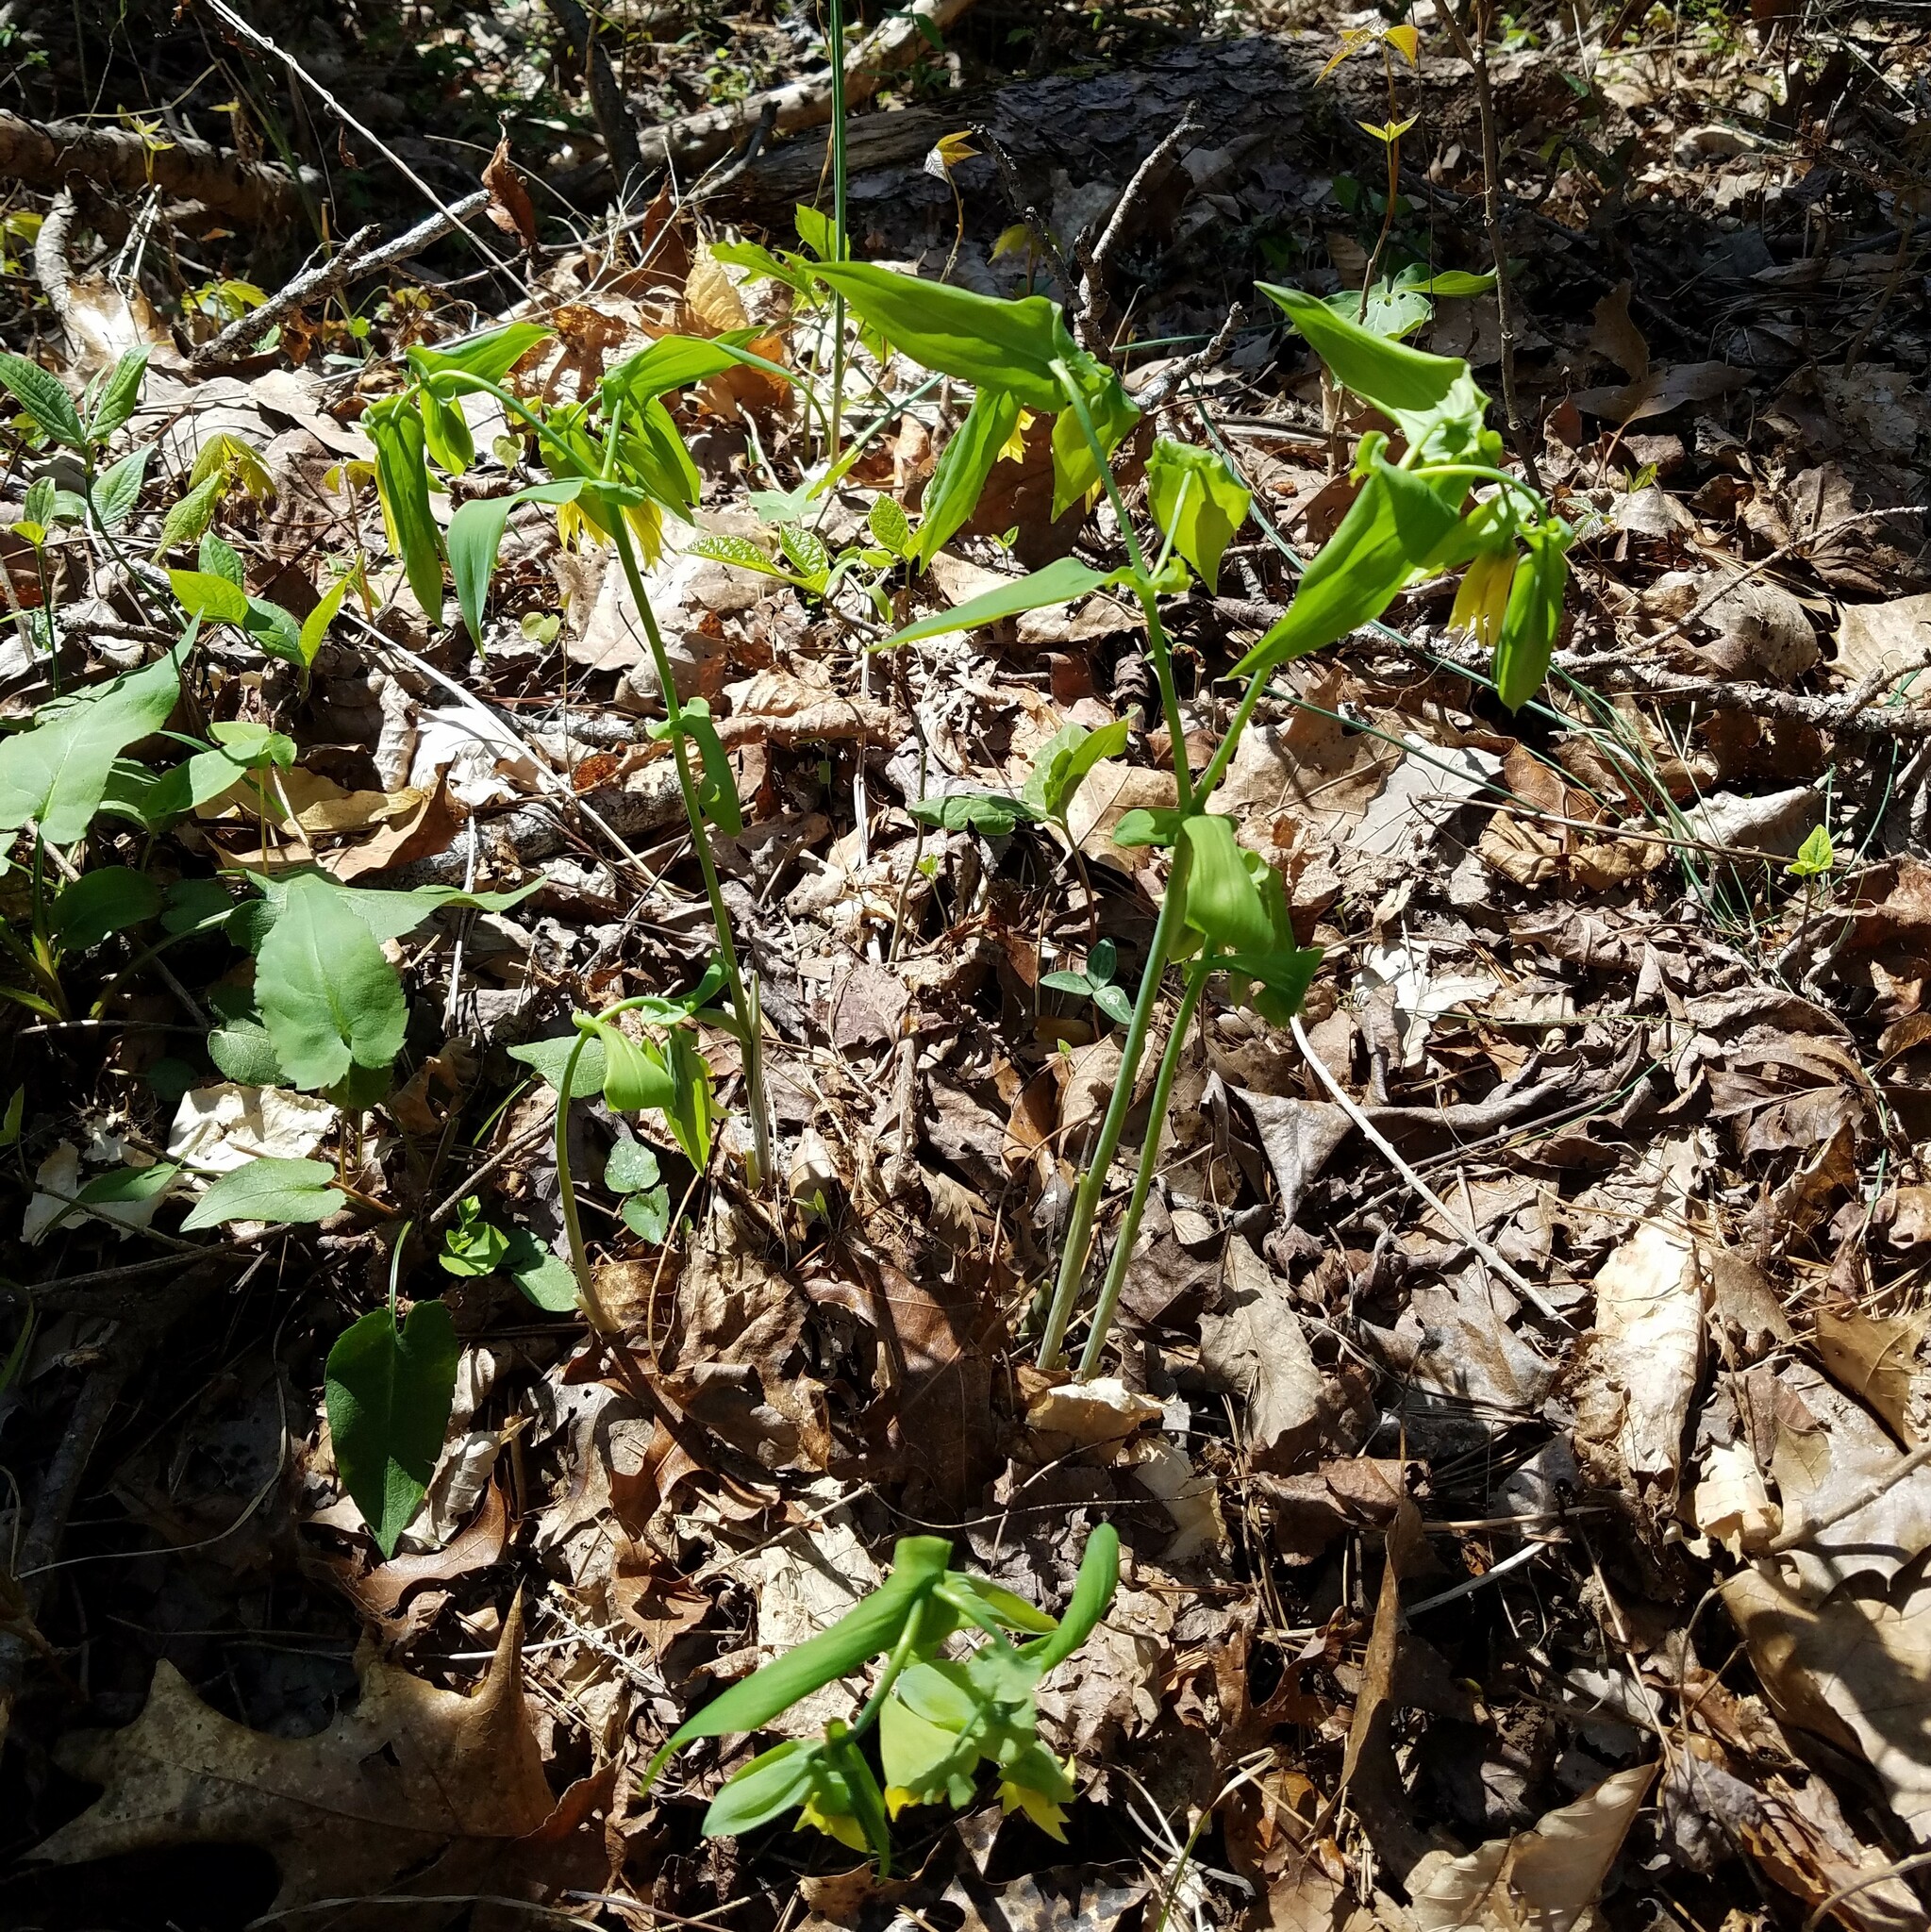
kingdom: Plantae
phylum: Tracheophyta
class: Liliopsida
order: Liliales
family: Colchicaceae
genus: Uvularia
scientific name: Uvularia grandiflora
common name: Bellwort
